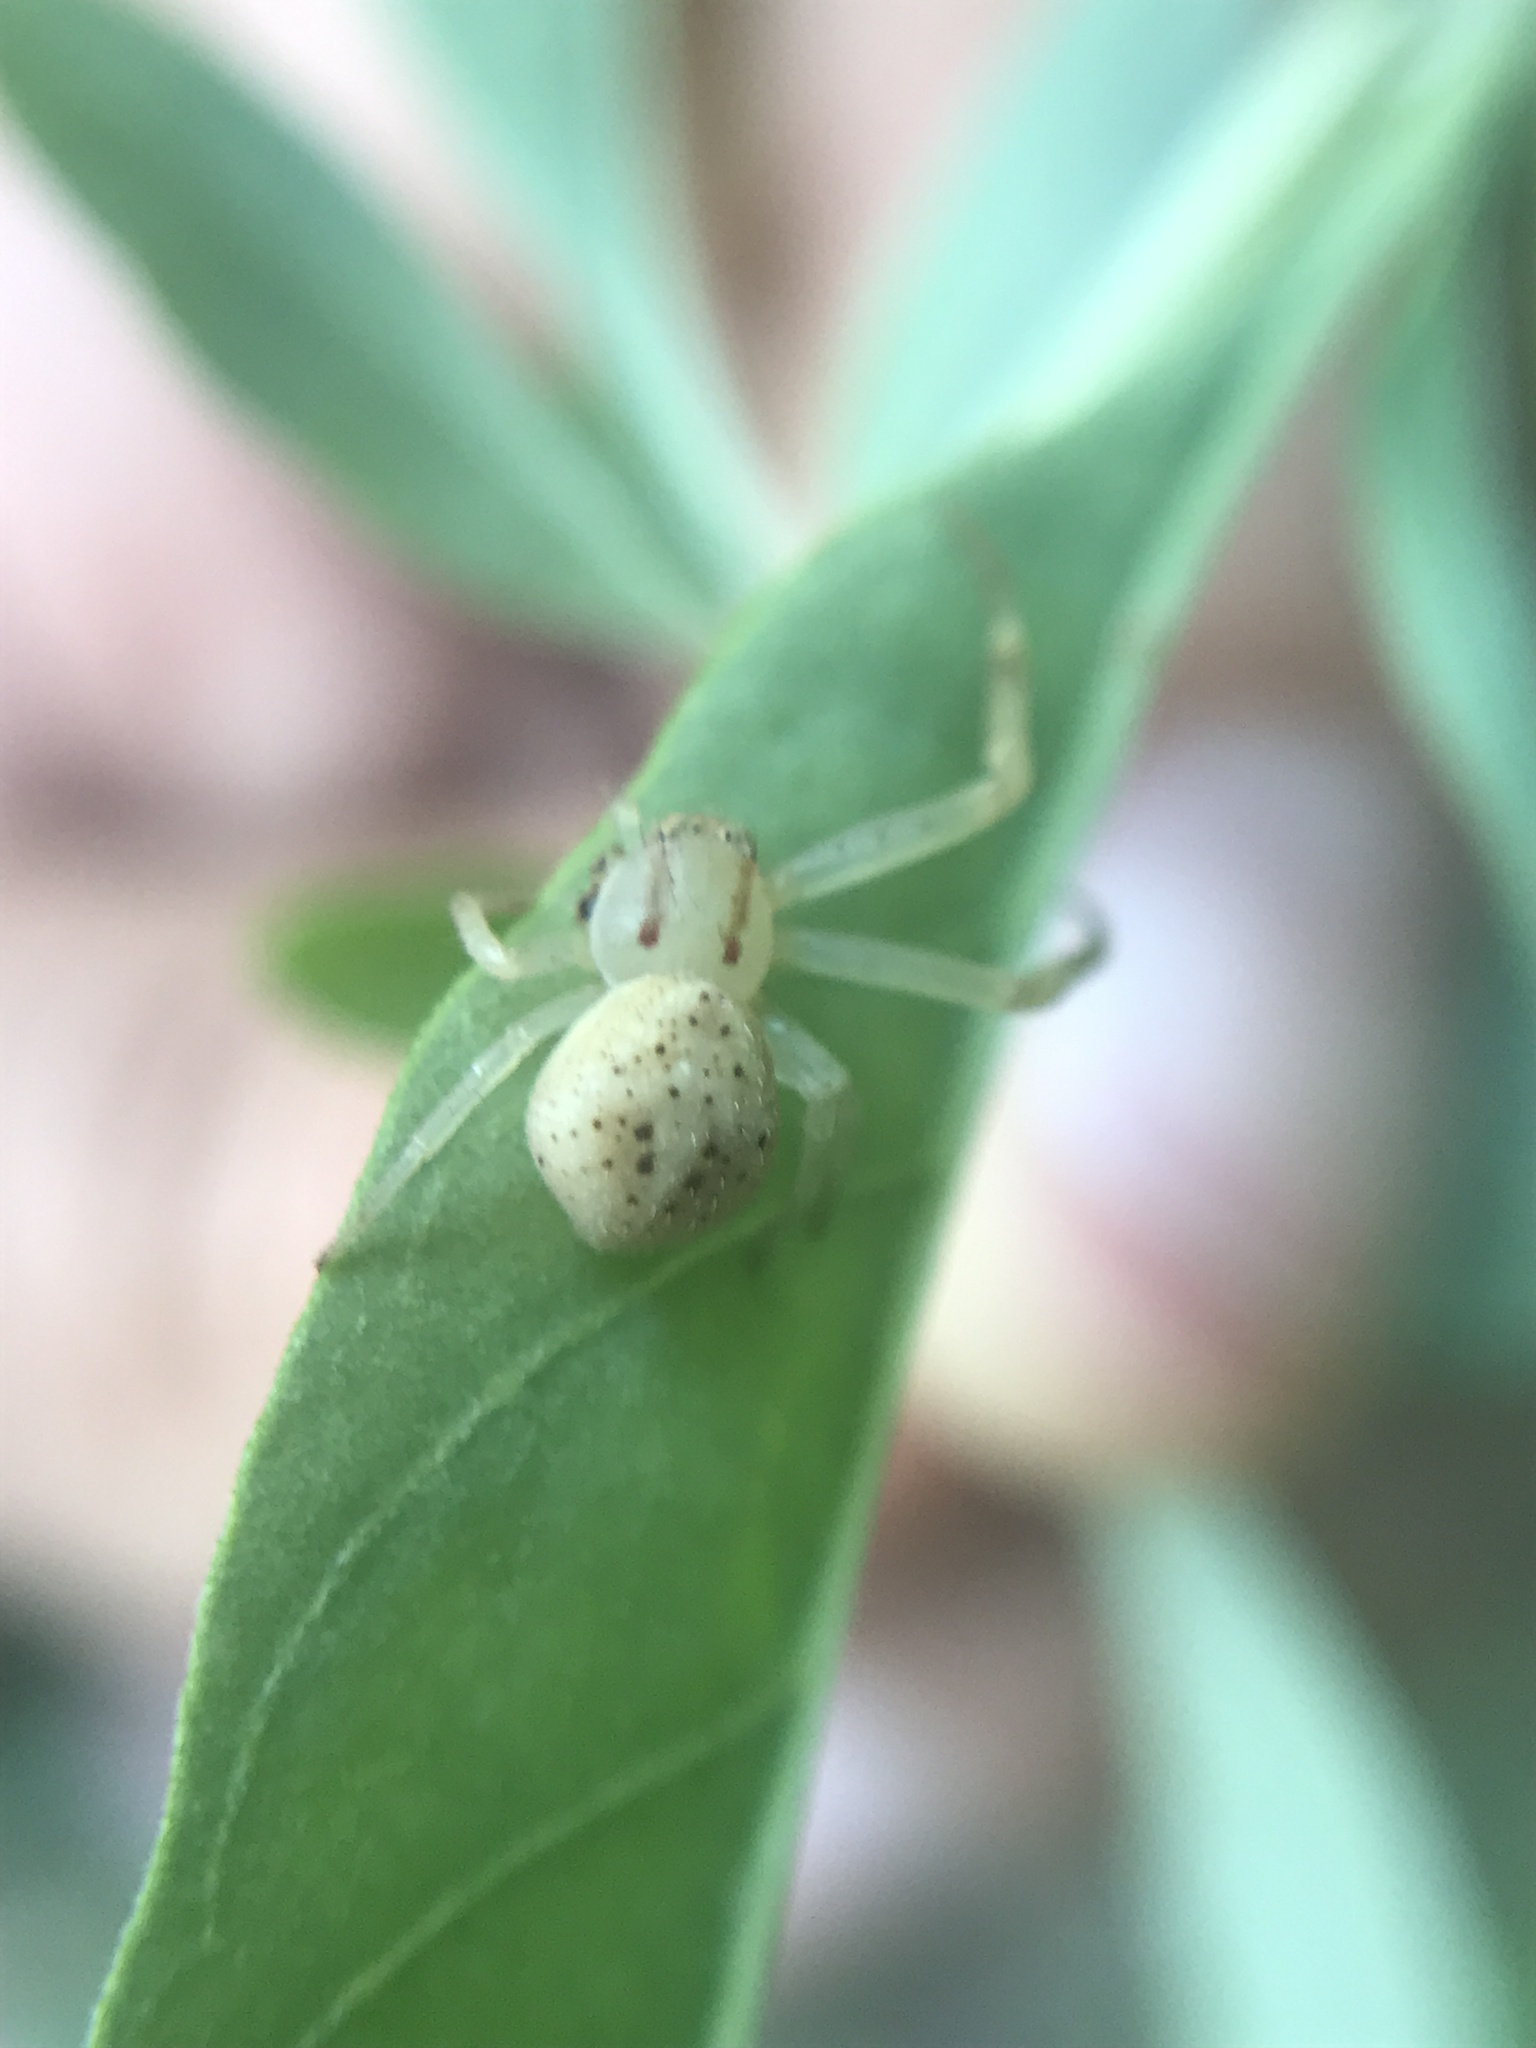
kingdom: Animalia
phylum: Arthropoda
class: Arachnida
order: Araneae
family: Thomisidae
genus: Misumenops
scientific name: Misumenops
